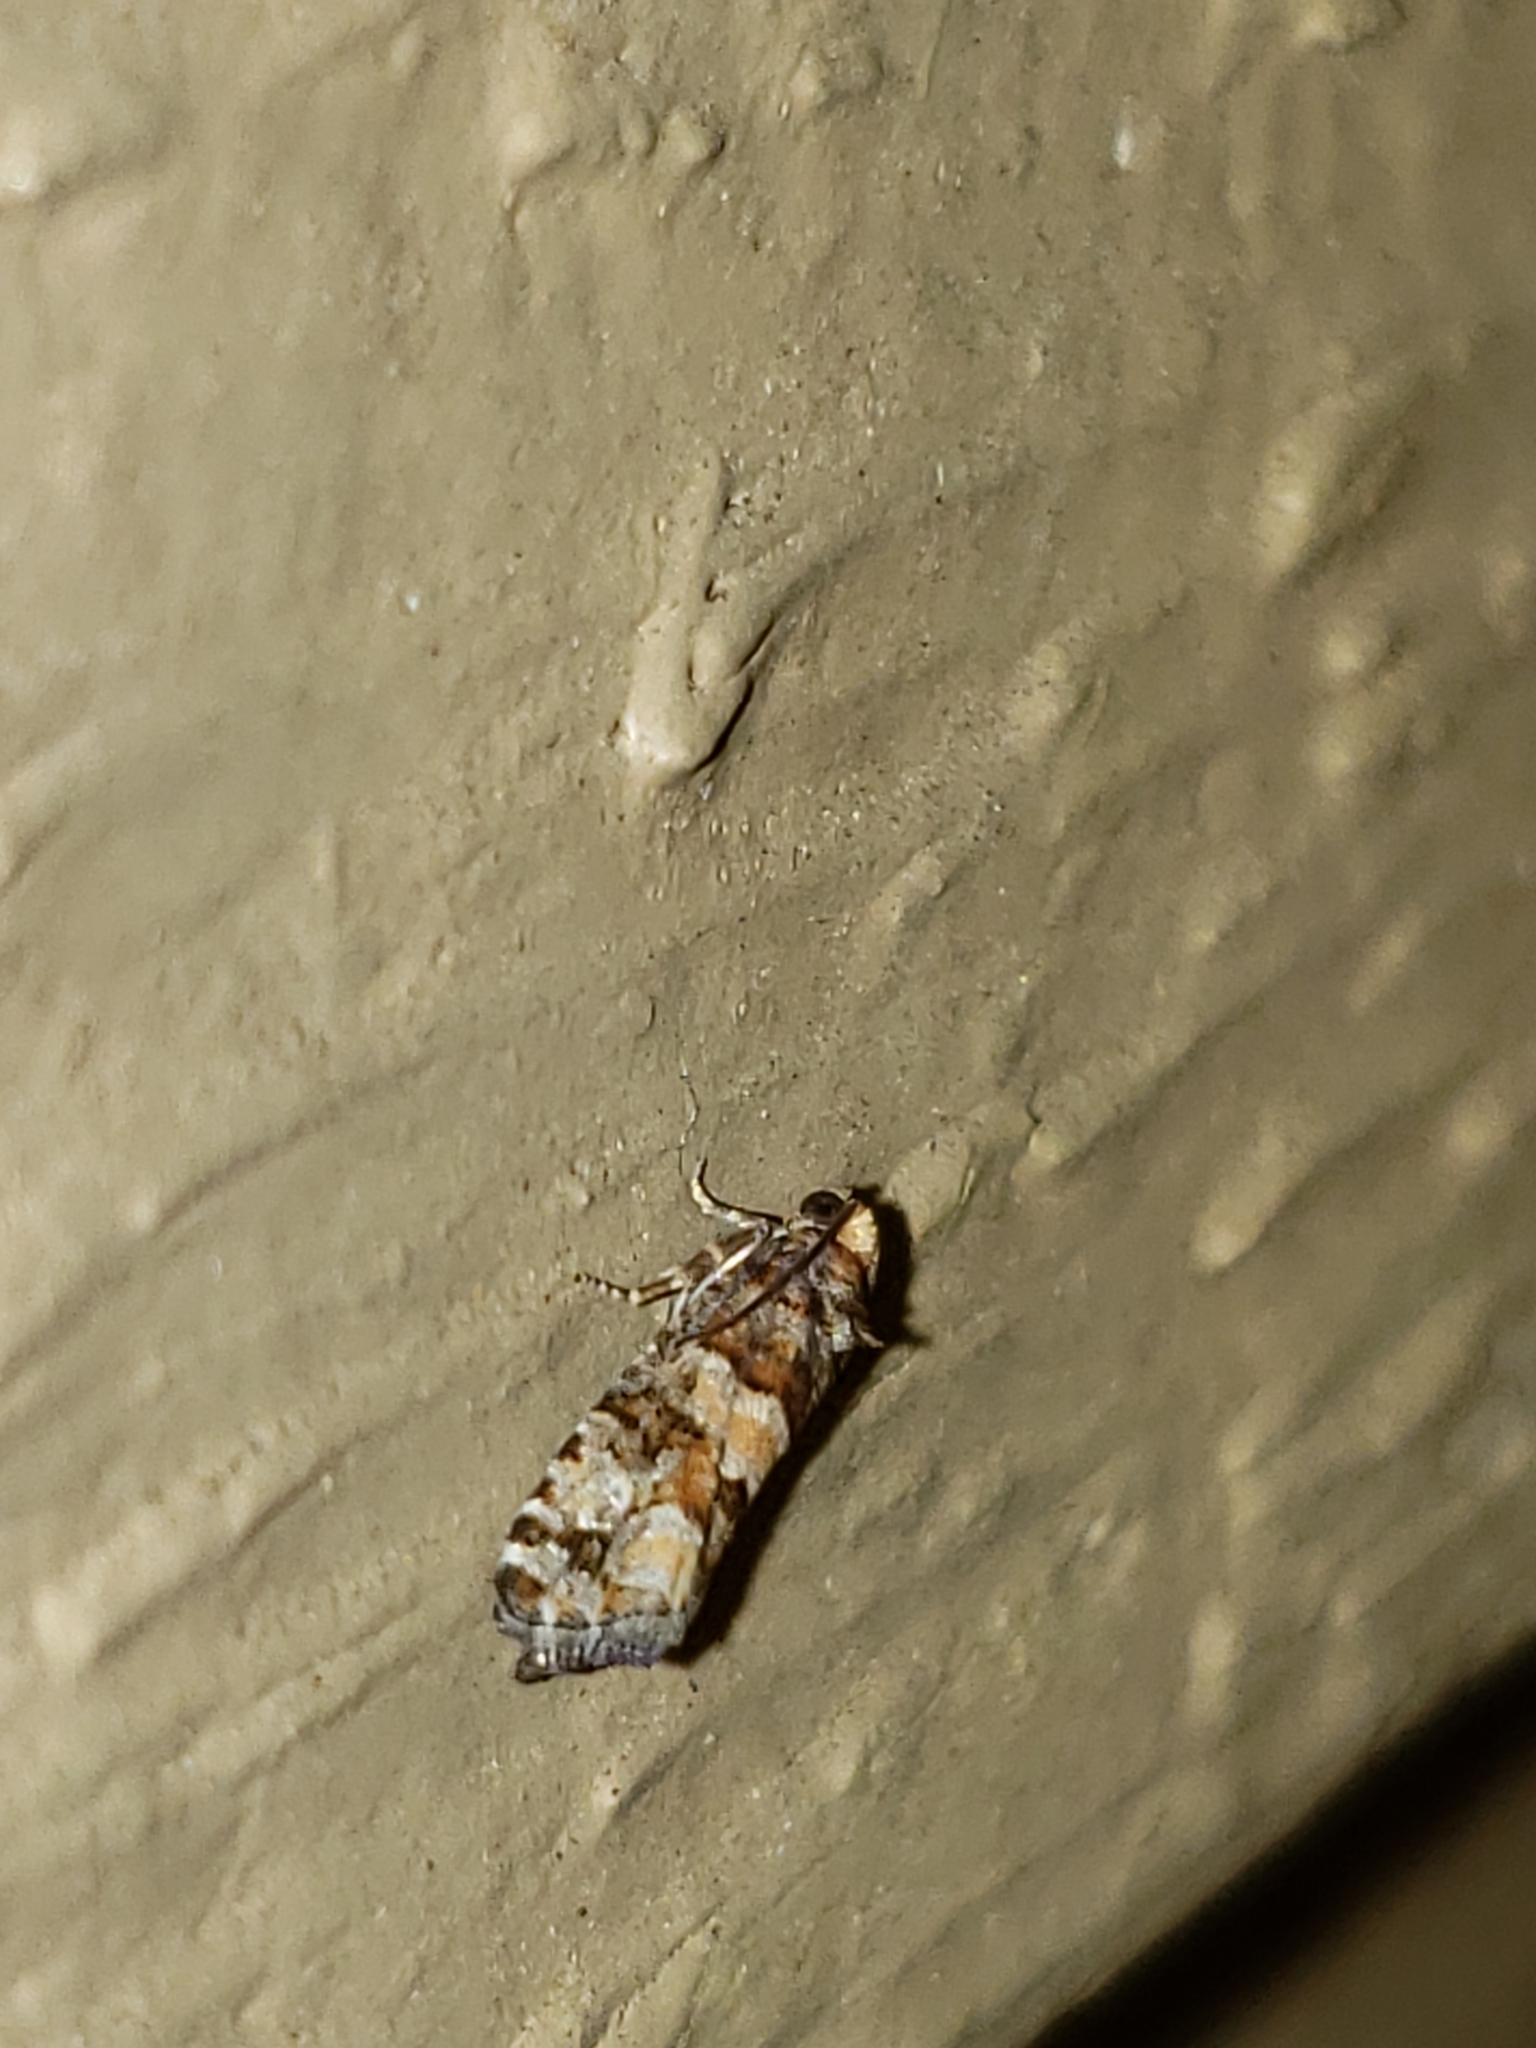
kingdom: Animalia
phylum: Arthropoda
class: Insecta
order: Lepidoptera
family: Tortricidae
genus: Eucopina
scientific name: Eucopina tocullionana
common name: White pinecone borer moth
